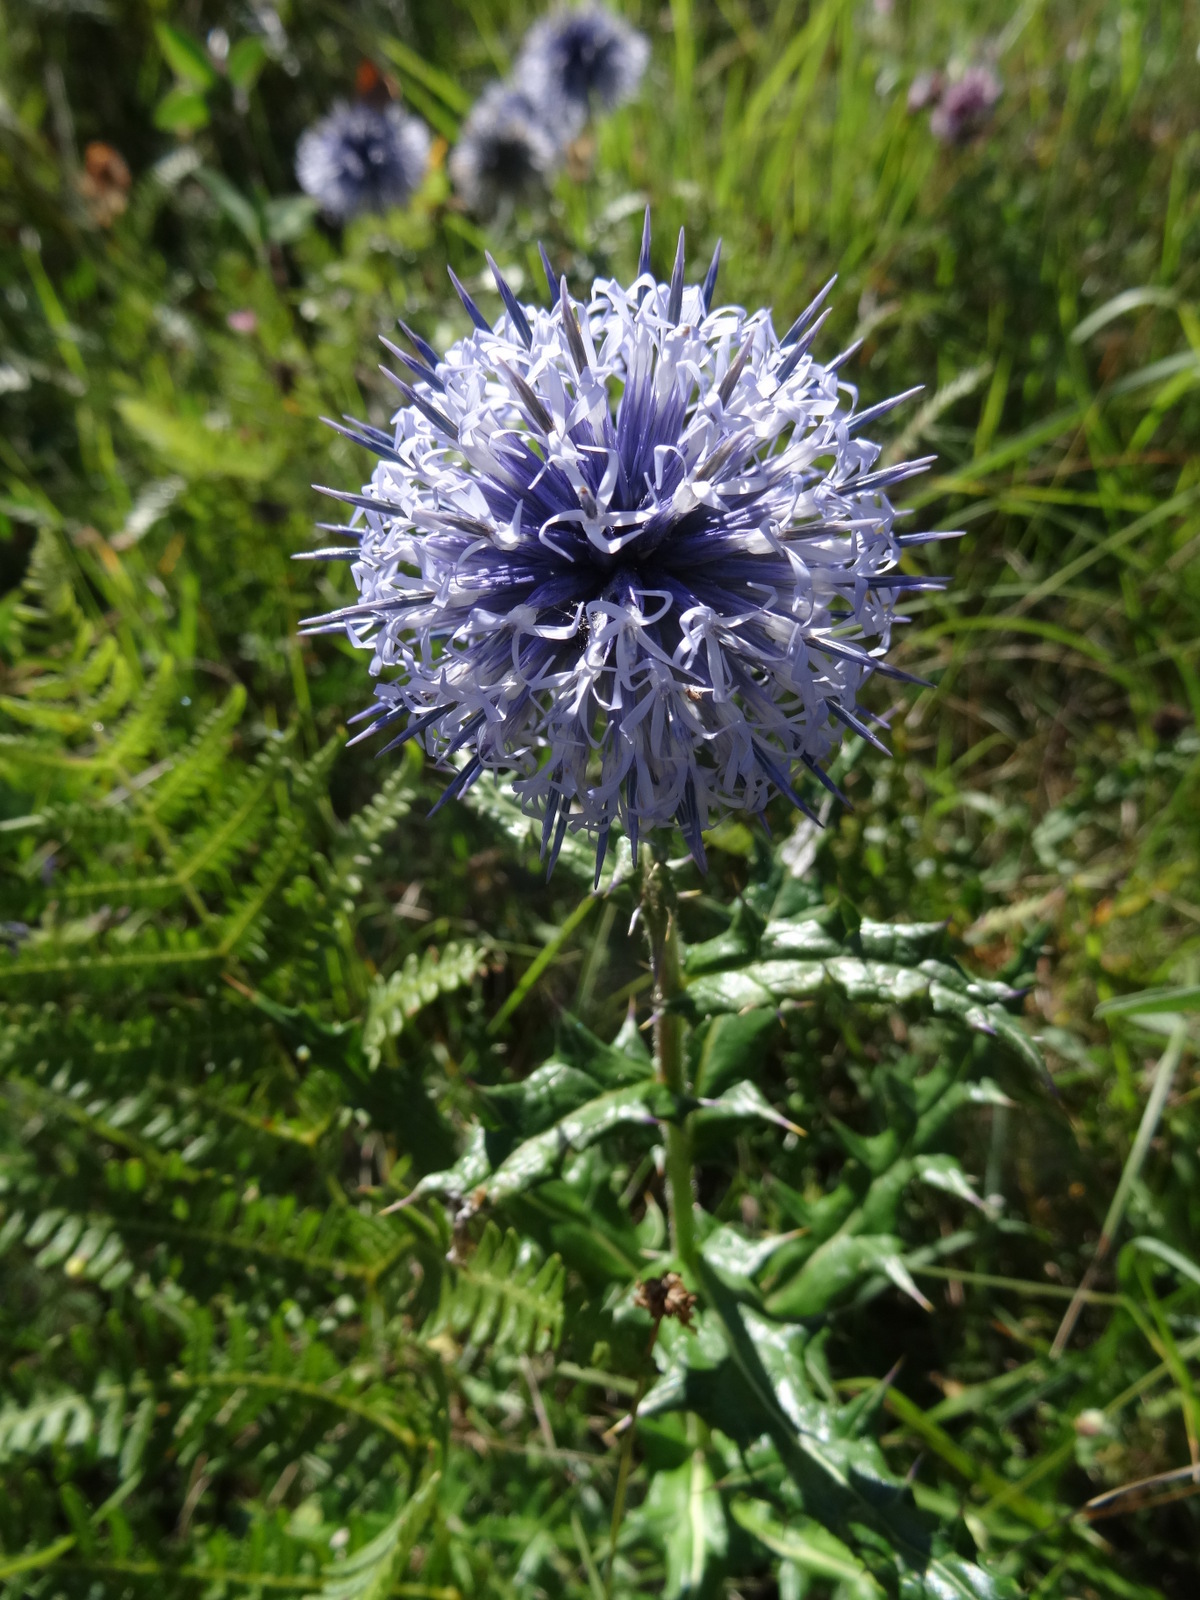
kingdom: Plantae
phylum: Tracheophyta
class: Magnoliopsida
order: Asterales
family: Asteraceae
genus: Echinops
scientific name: Echinops ritro
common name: Globe thistle
